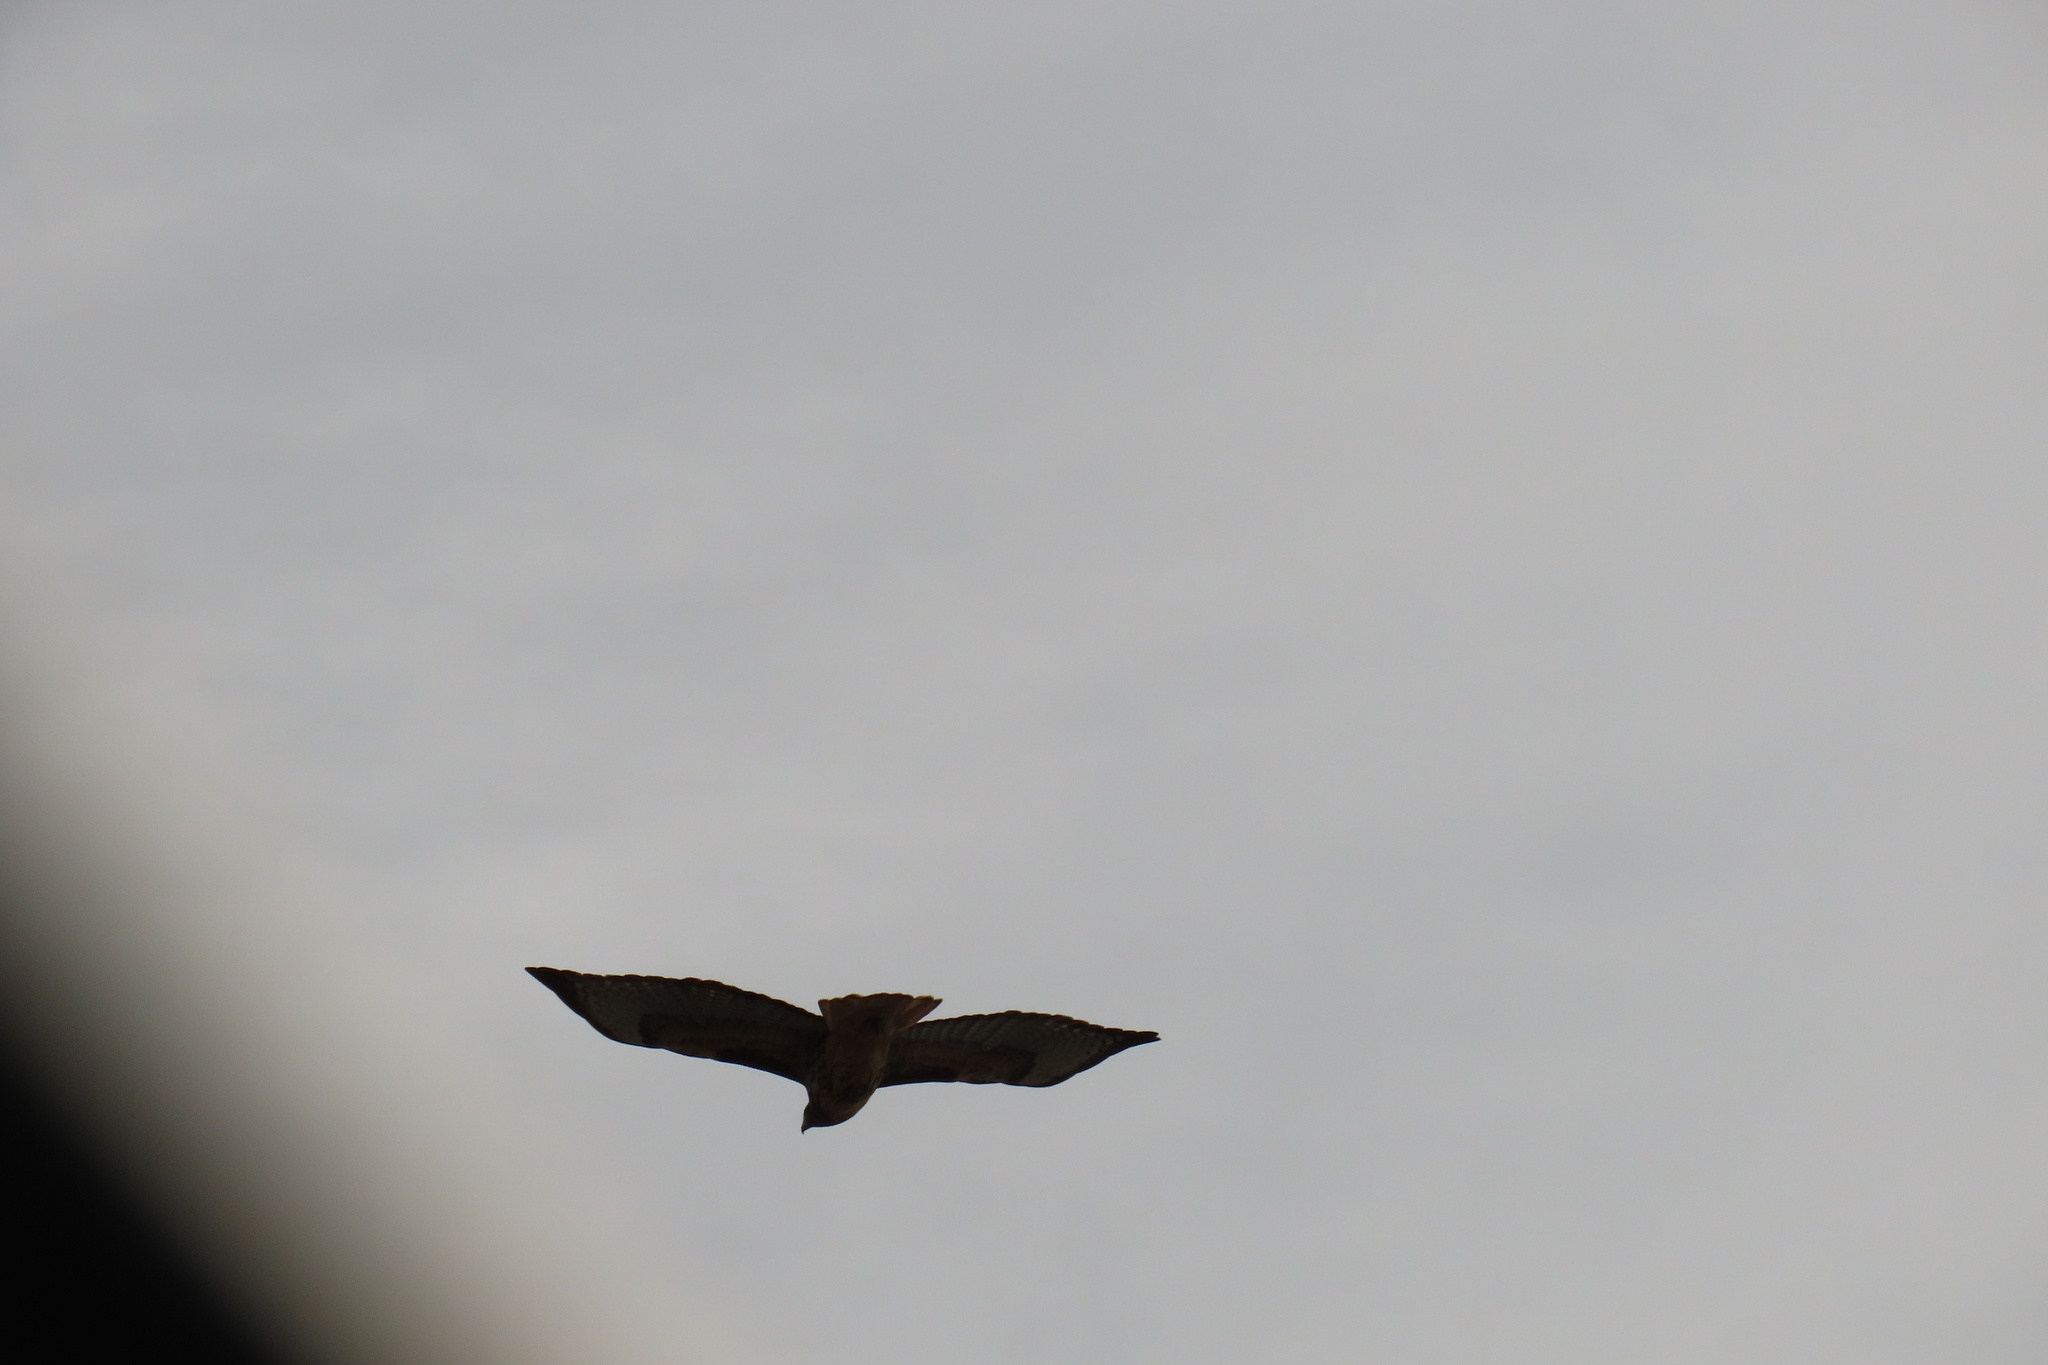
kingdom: Animalia
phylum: Chordata
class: Aves
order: Accipitriformes
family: Accipitridae
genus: Buteo
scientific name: Buteo jamaicensis
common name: Red-tailed hawk
